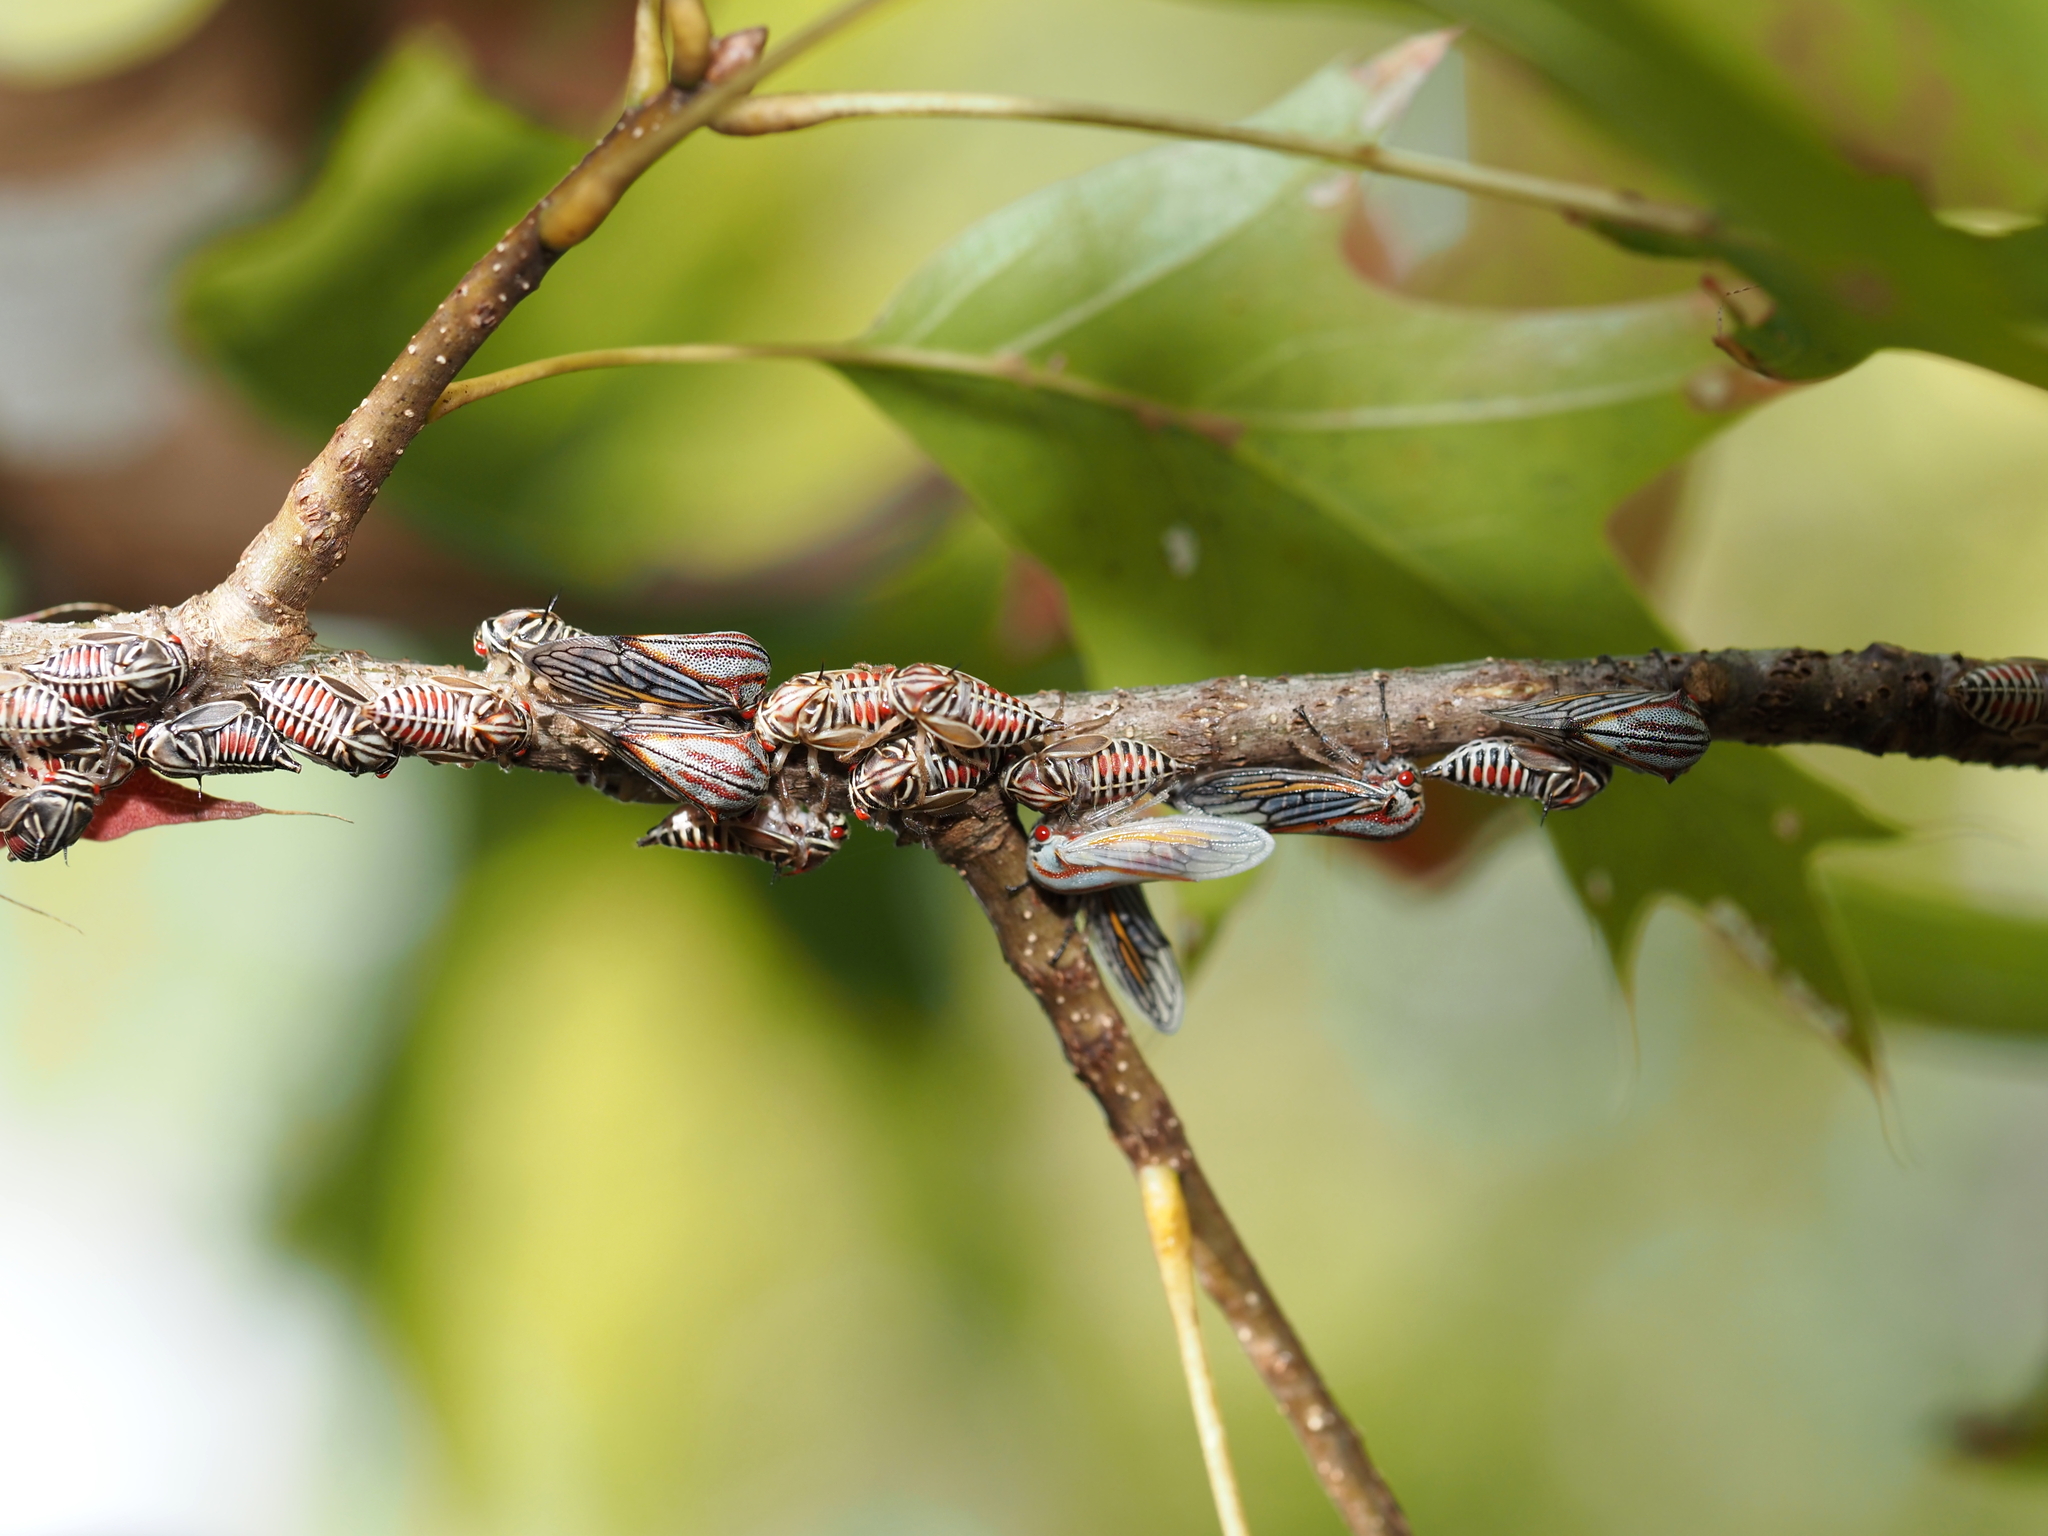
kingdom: Animalia
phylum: Arthropoda
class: Insecta
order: Hemiptera
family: Membracidae
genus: Platycotis
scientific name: Platycotis vittatus
